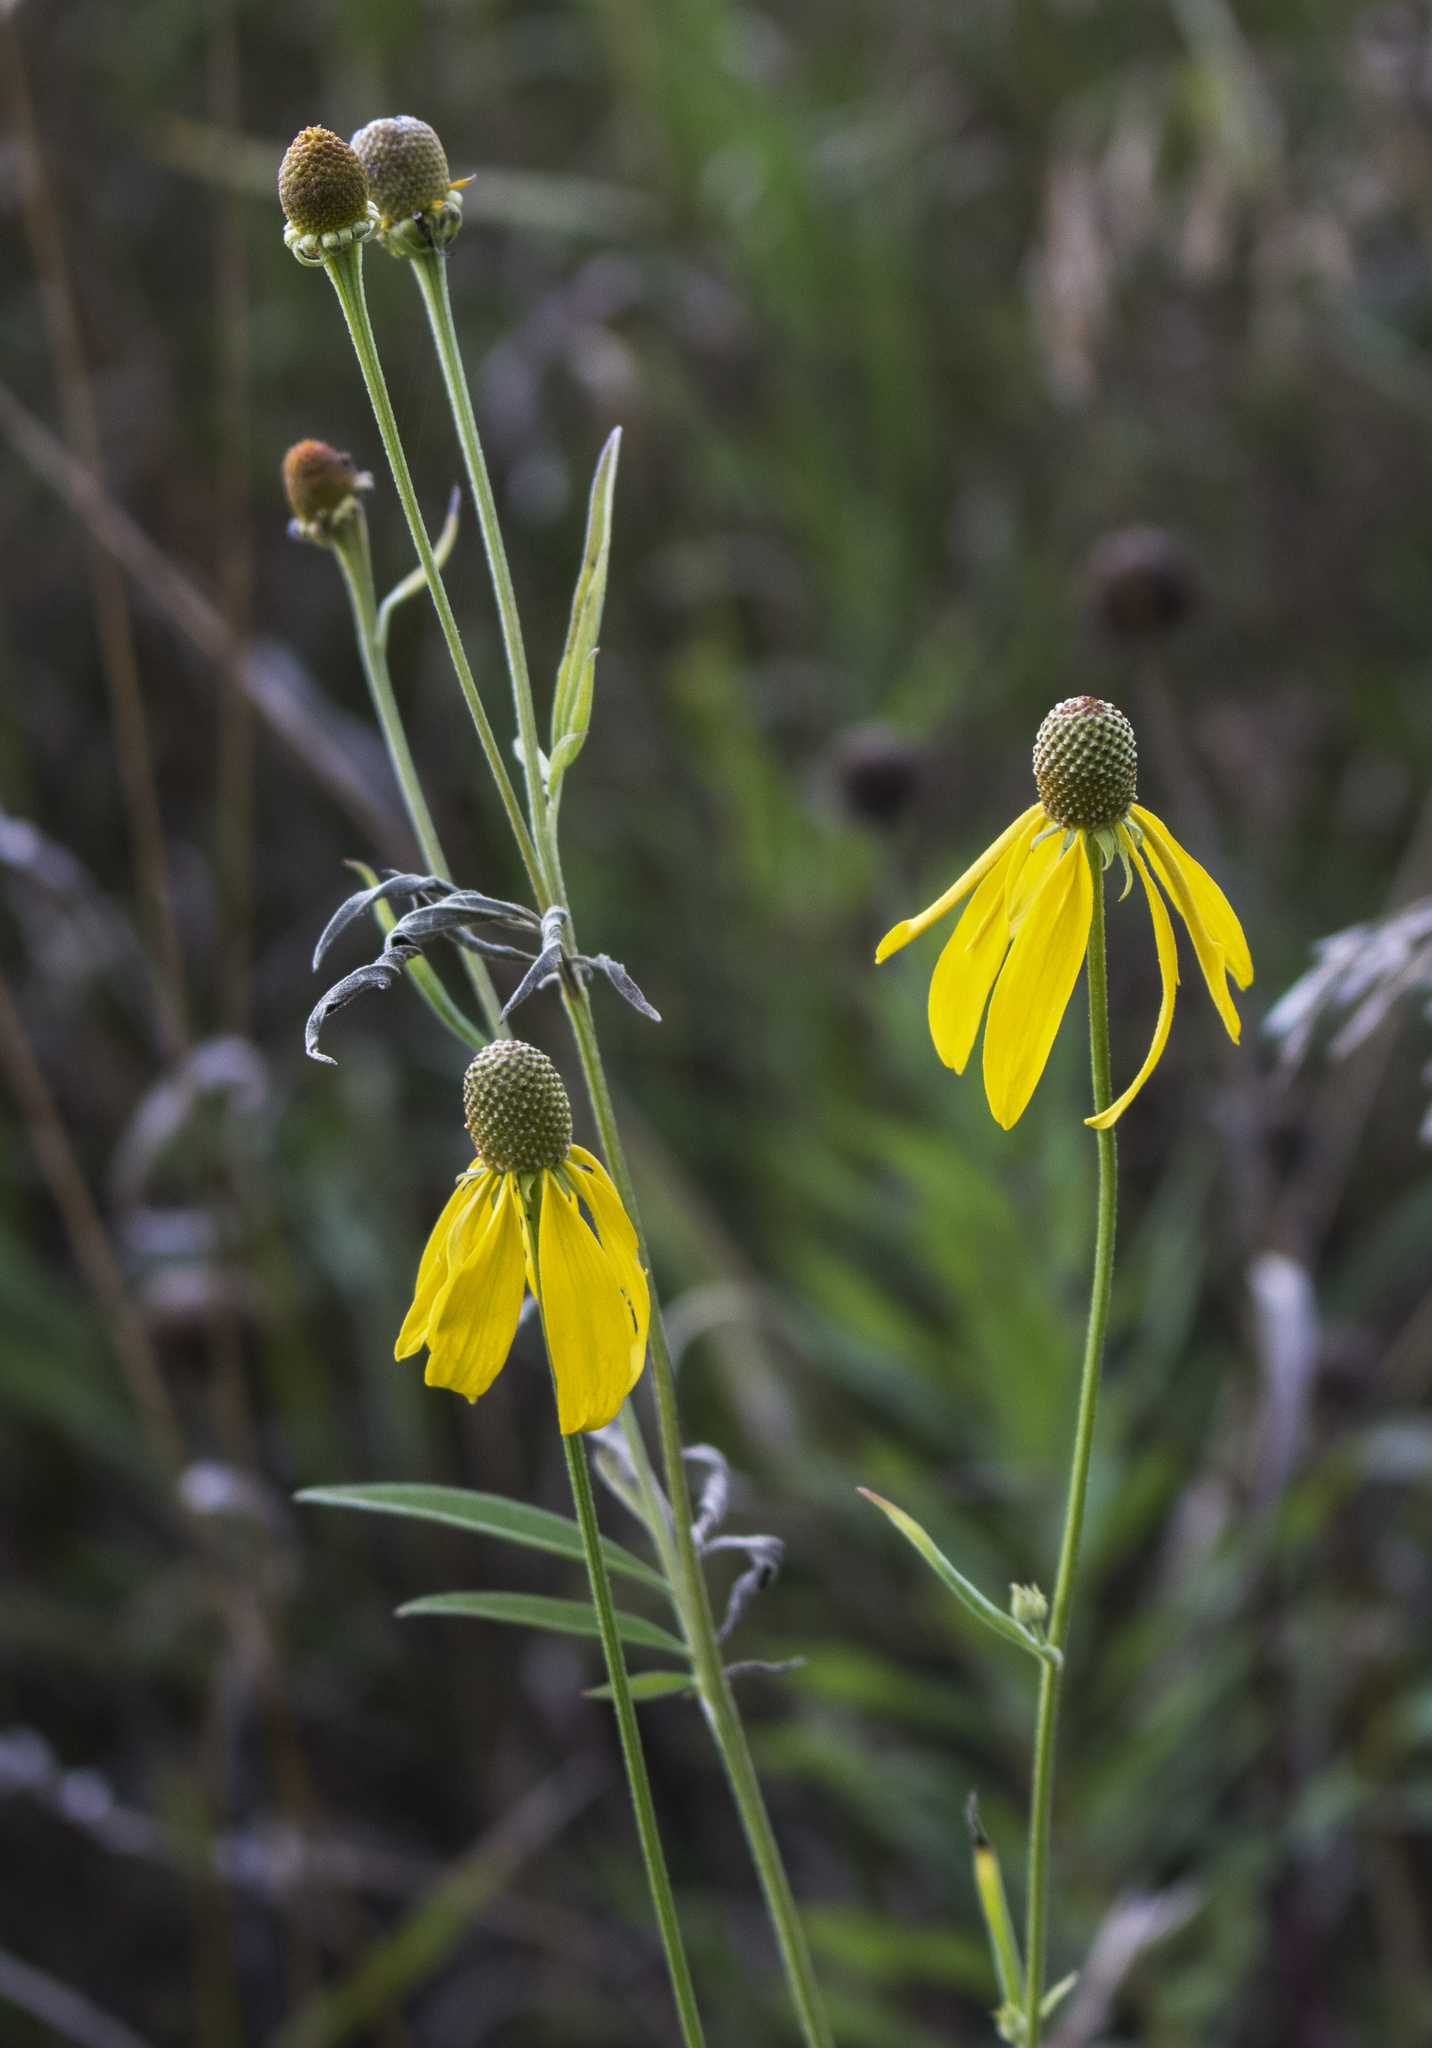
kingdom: Plantae
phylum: Tracheophyta
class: Magnoliopsida
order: Asterales
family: Asteraceae
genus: Ratibida
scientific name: Ratibida pinnata
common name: Drooping prairie-coneflower
